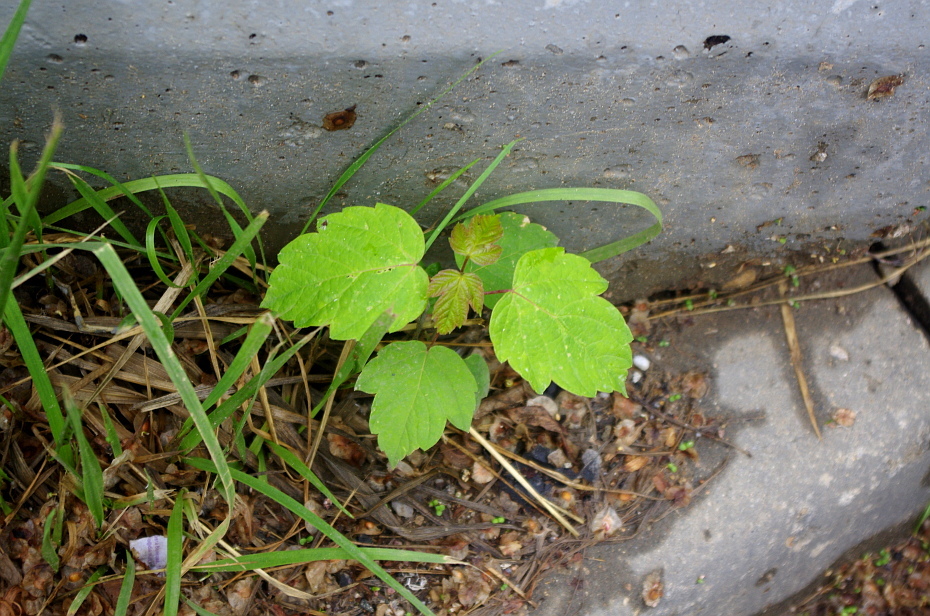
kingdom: Plantae
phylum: Tracheophyta
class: Magnoliopsida
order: Sapindales
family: Sapindaceae
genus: Acer
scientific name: Acer negundo
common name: Ashleaf maple
